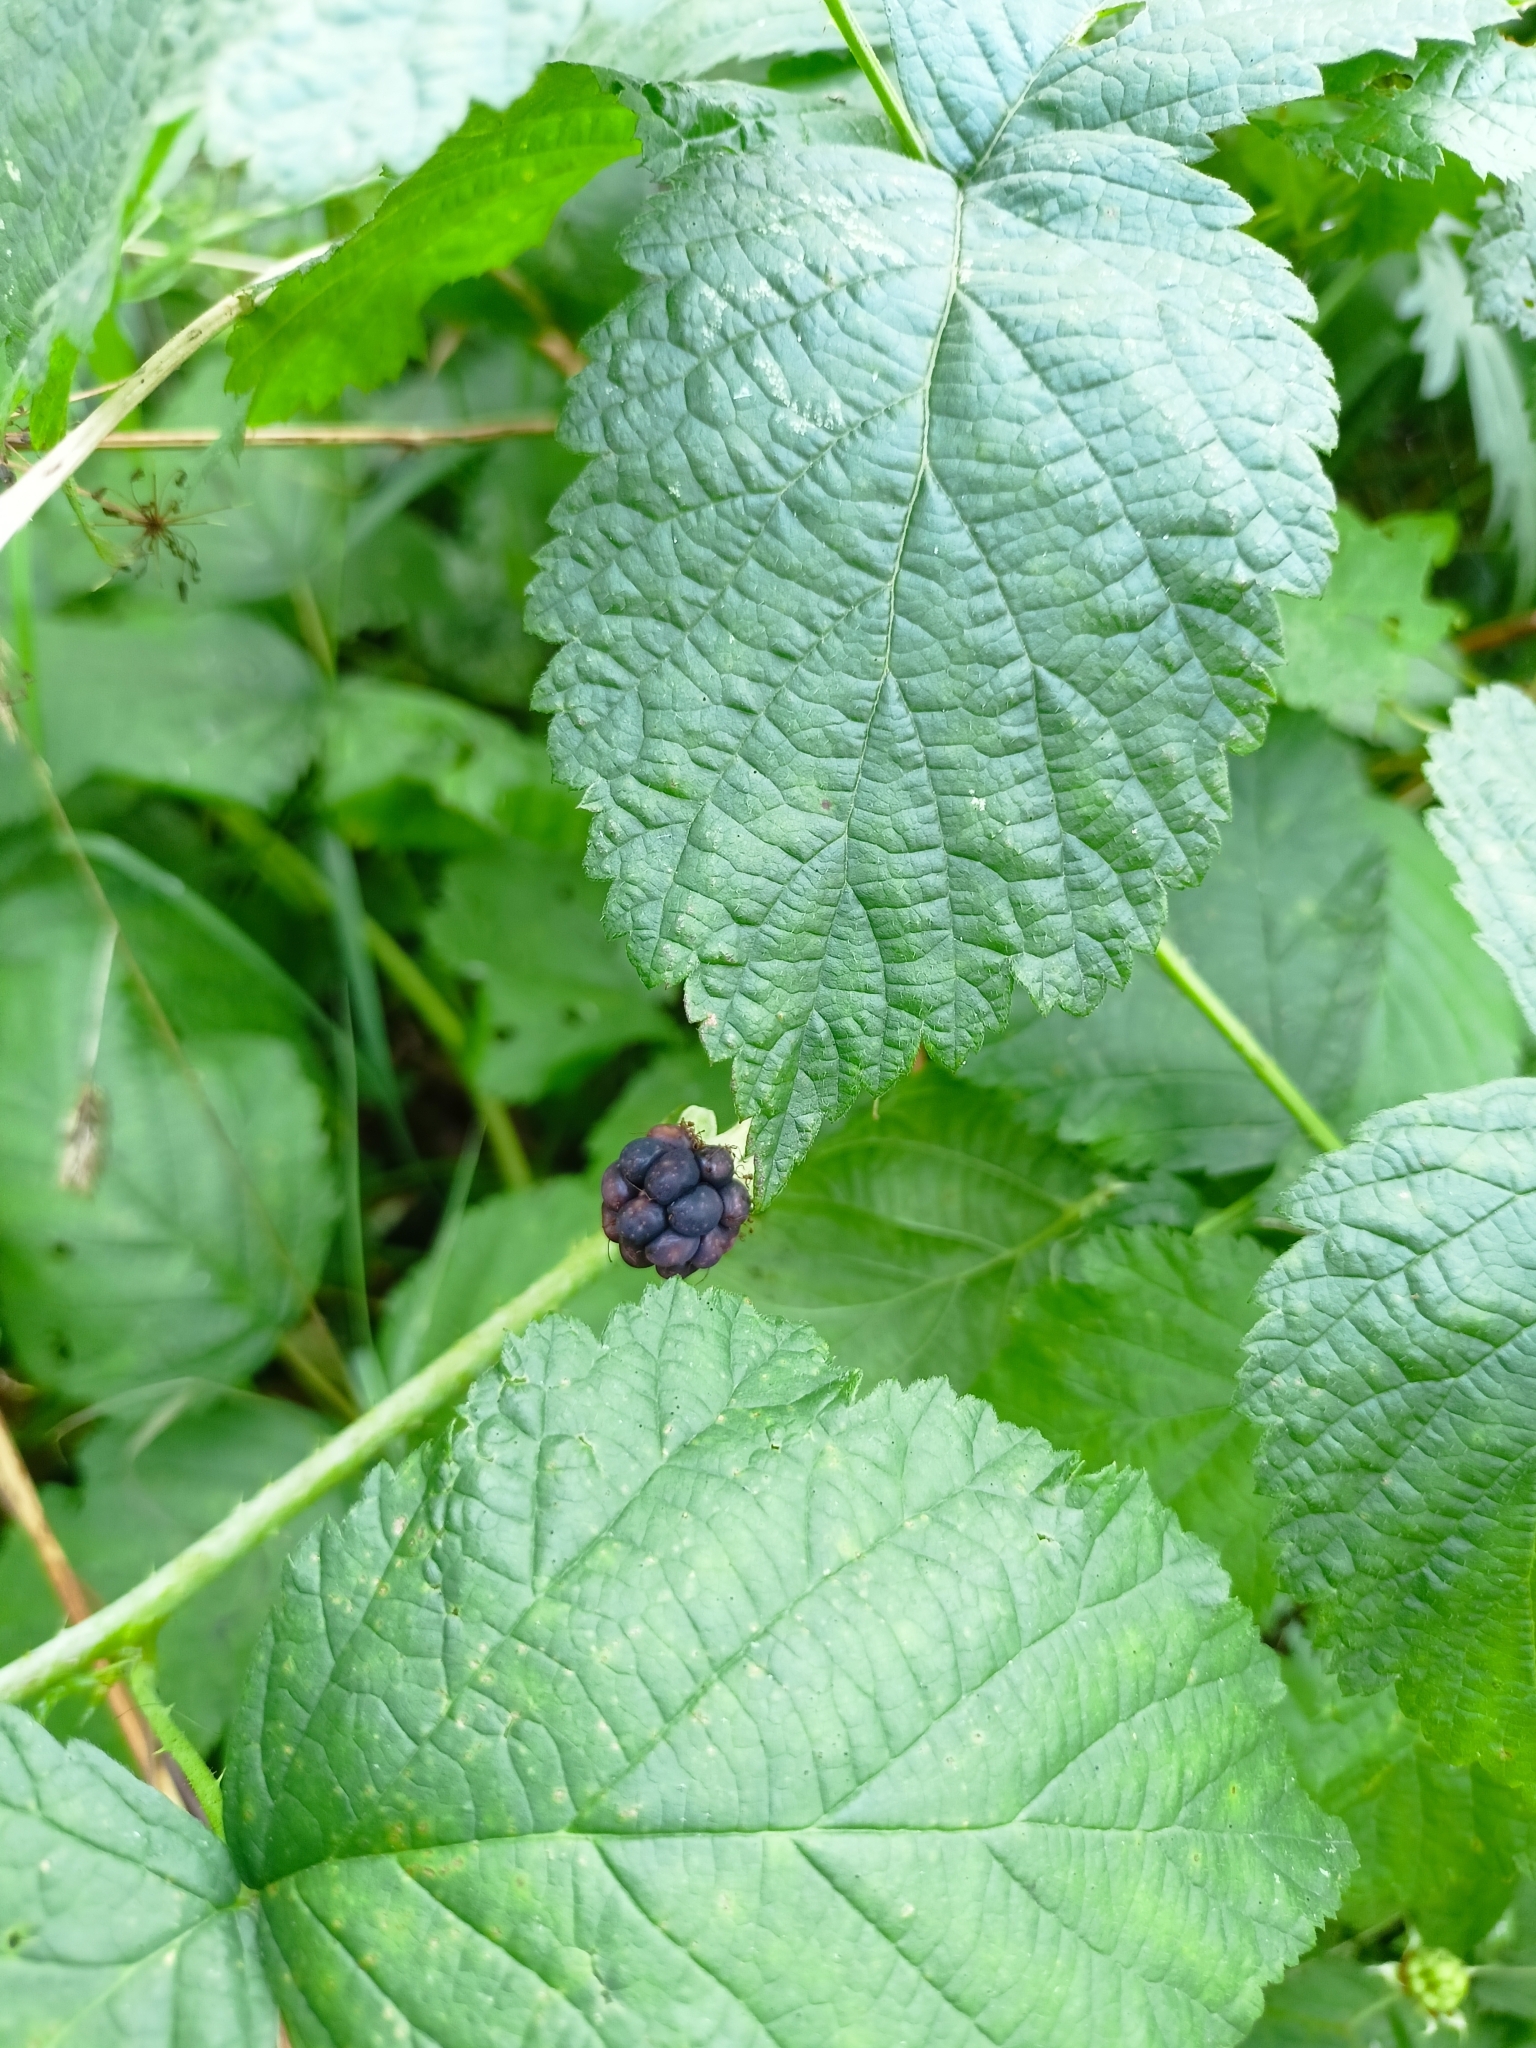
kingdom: Plantae
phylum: Tracheophyta
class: Magnoliopsida
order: Rosales
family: Rosaceae
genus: Rubus
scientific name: Rubus caesius
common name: Dewberry
